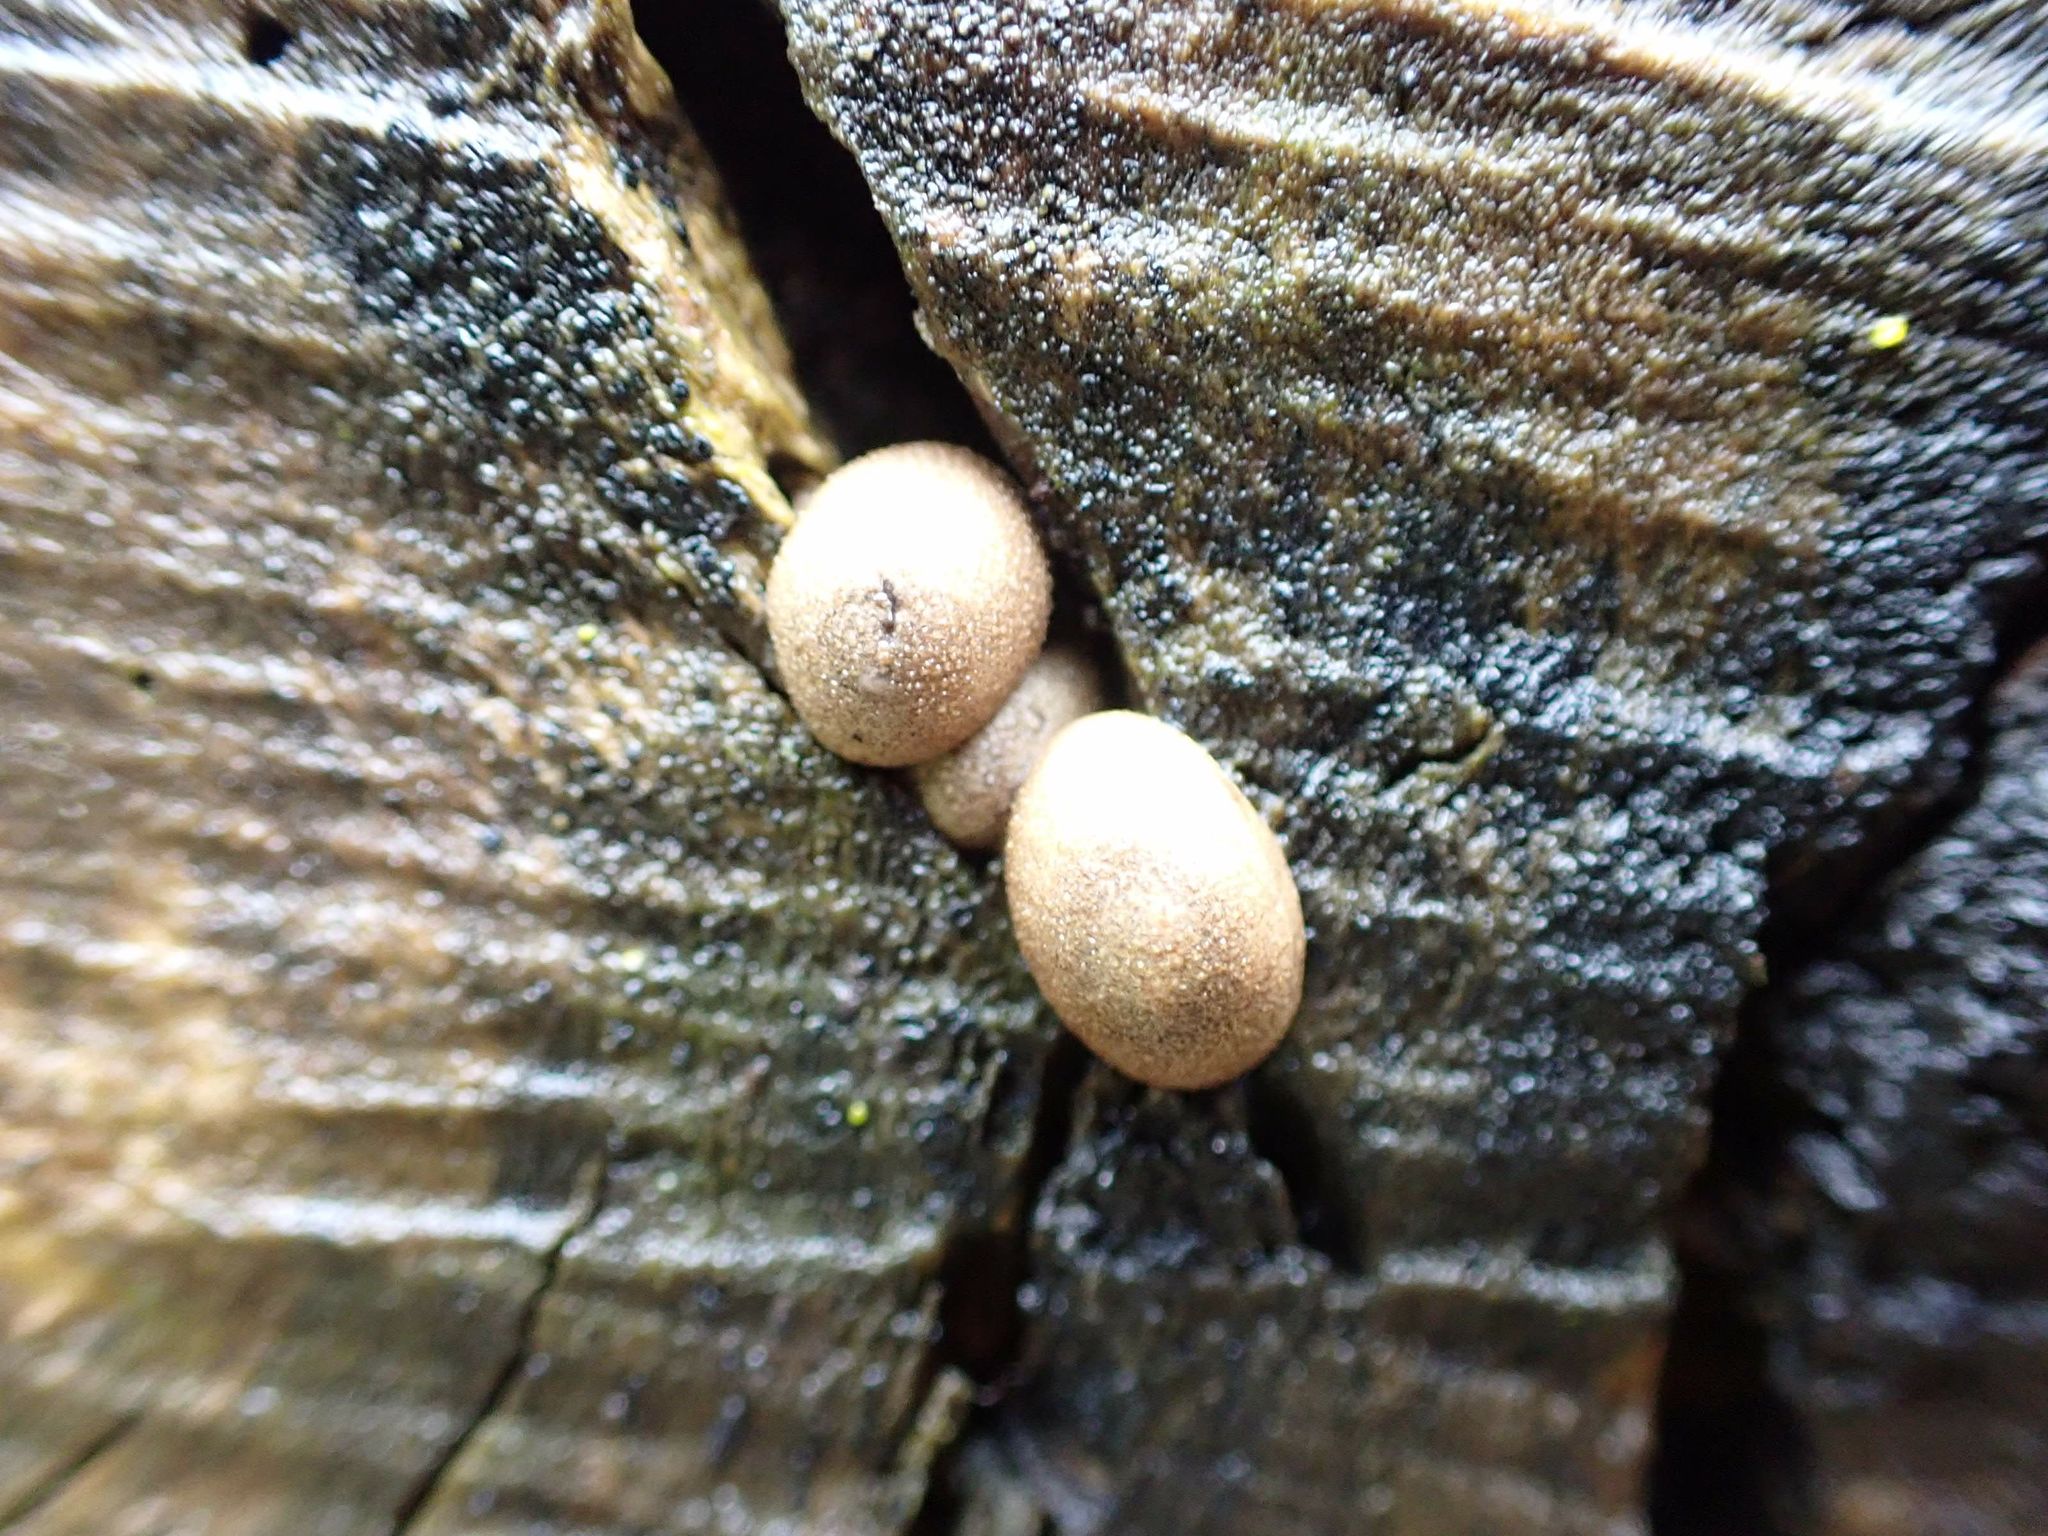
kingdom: Protozoa
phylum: Mycetozoa
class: Myxomycetes
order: Cribrariales
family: Tubiferaceae
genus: Lycogala
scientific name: Lycogala epidendrum
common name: Wolf's milk
